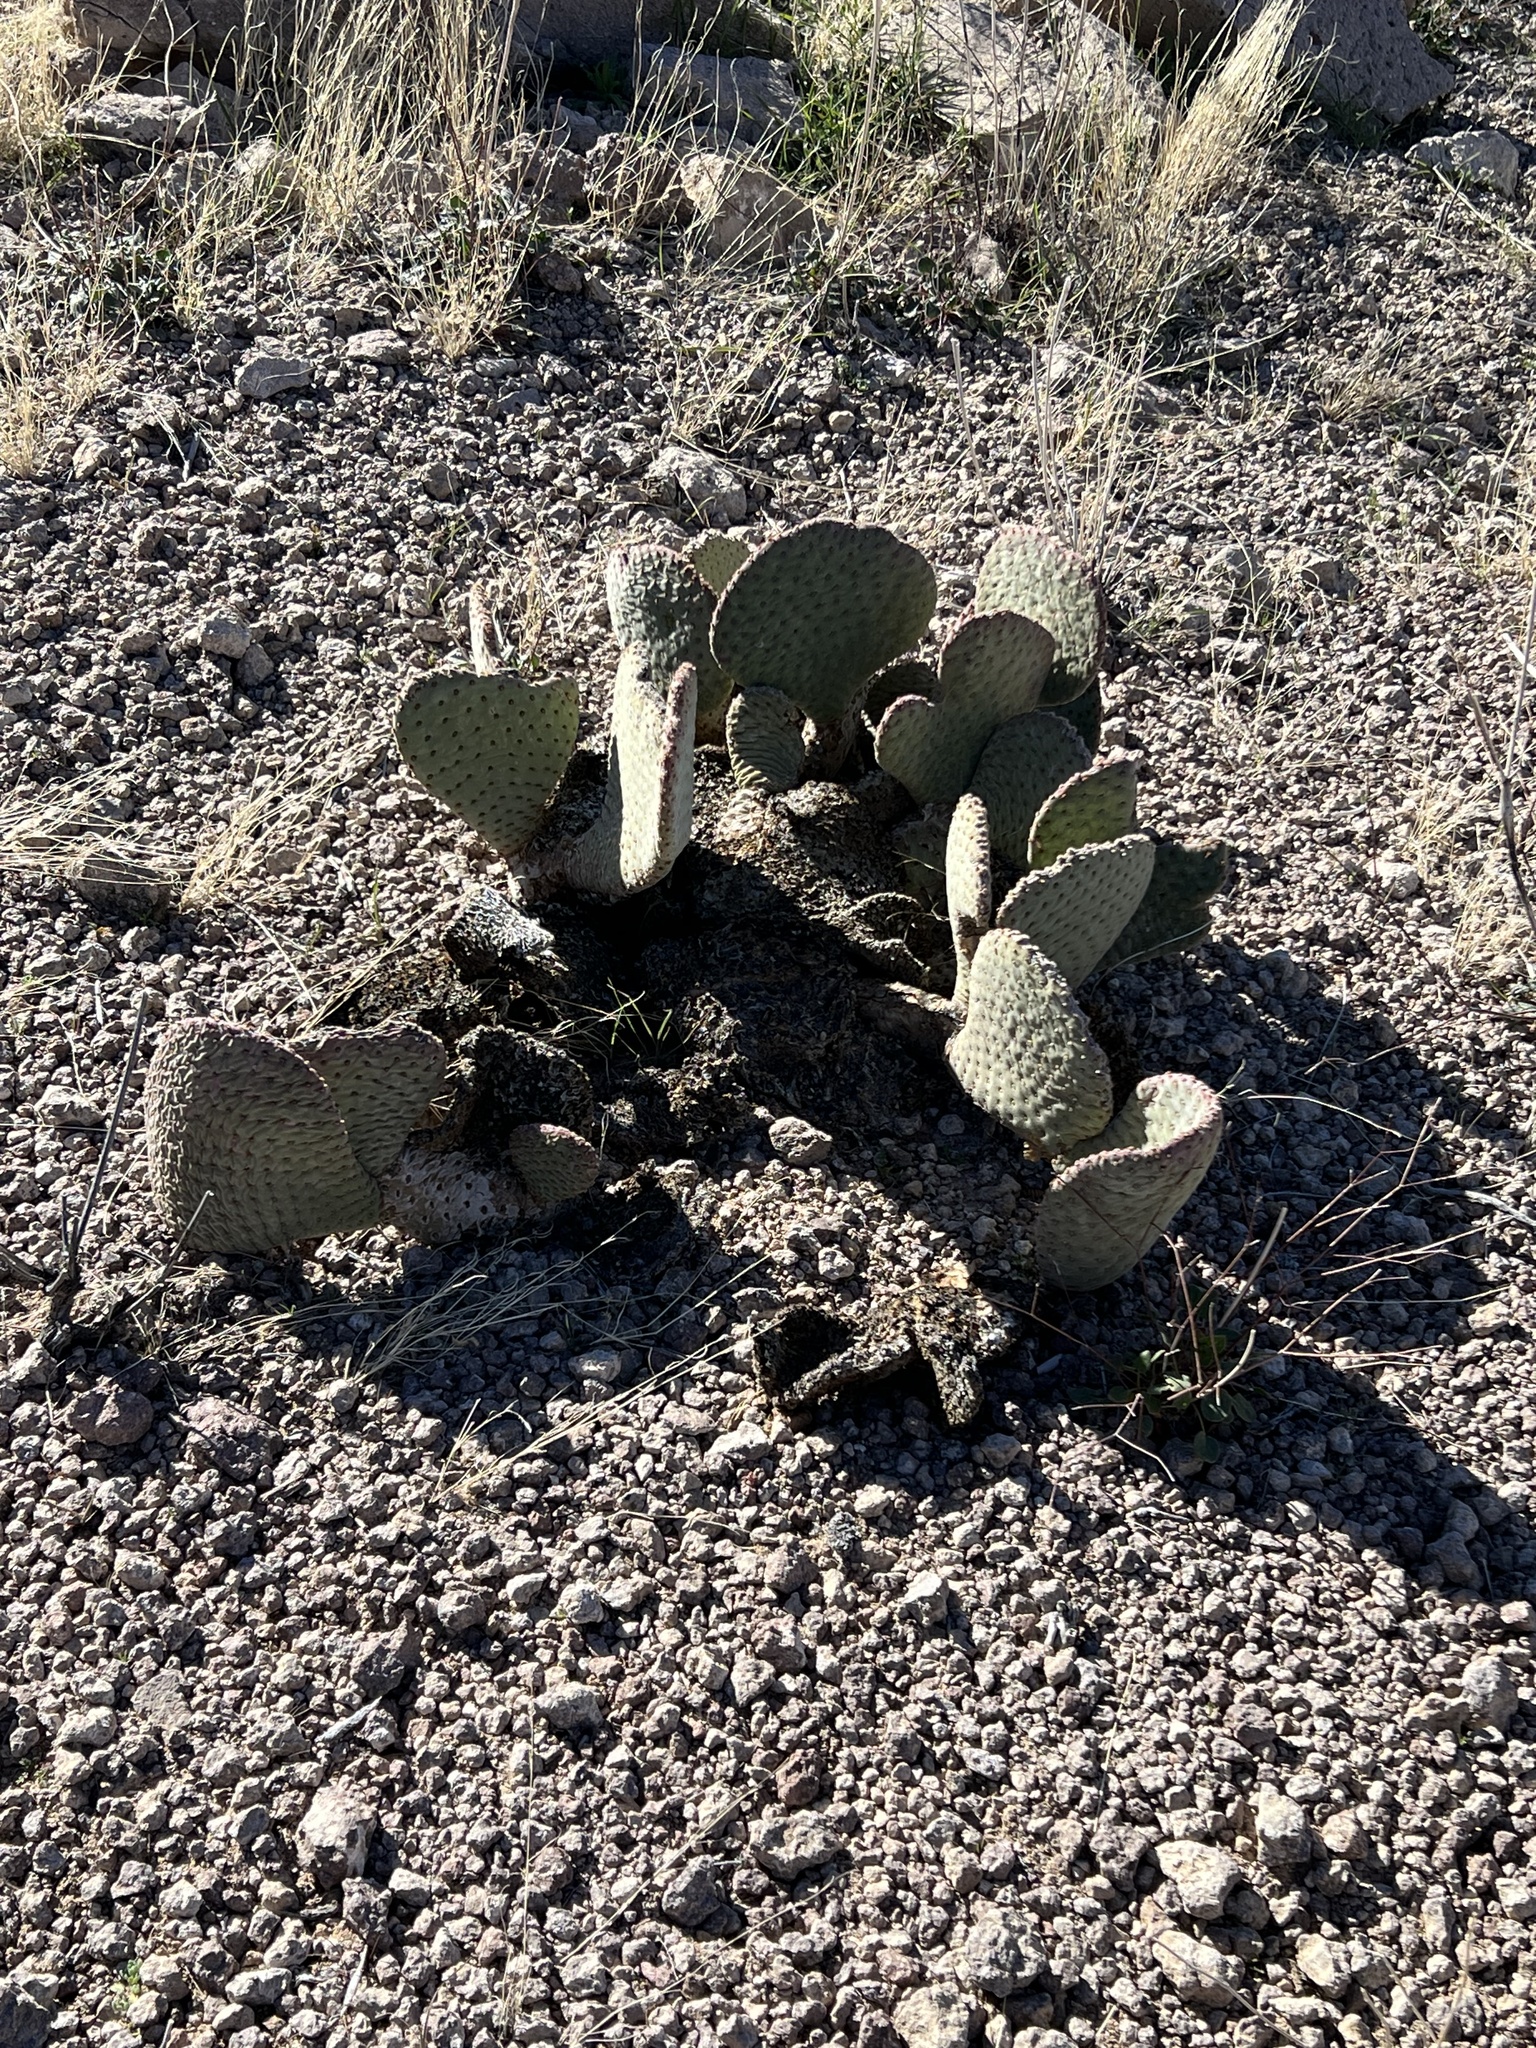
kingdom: Plantae
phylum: Tracheophyta
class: Magnoliopsida
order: Caryophyllales
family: Cactaceae
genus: Opuntia
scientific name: Opuntia basilaris
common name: Beavertail prickly-pear
